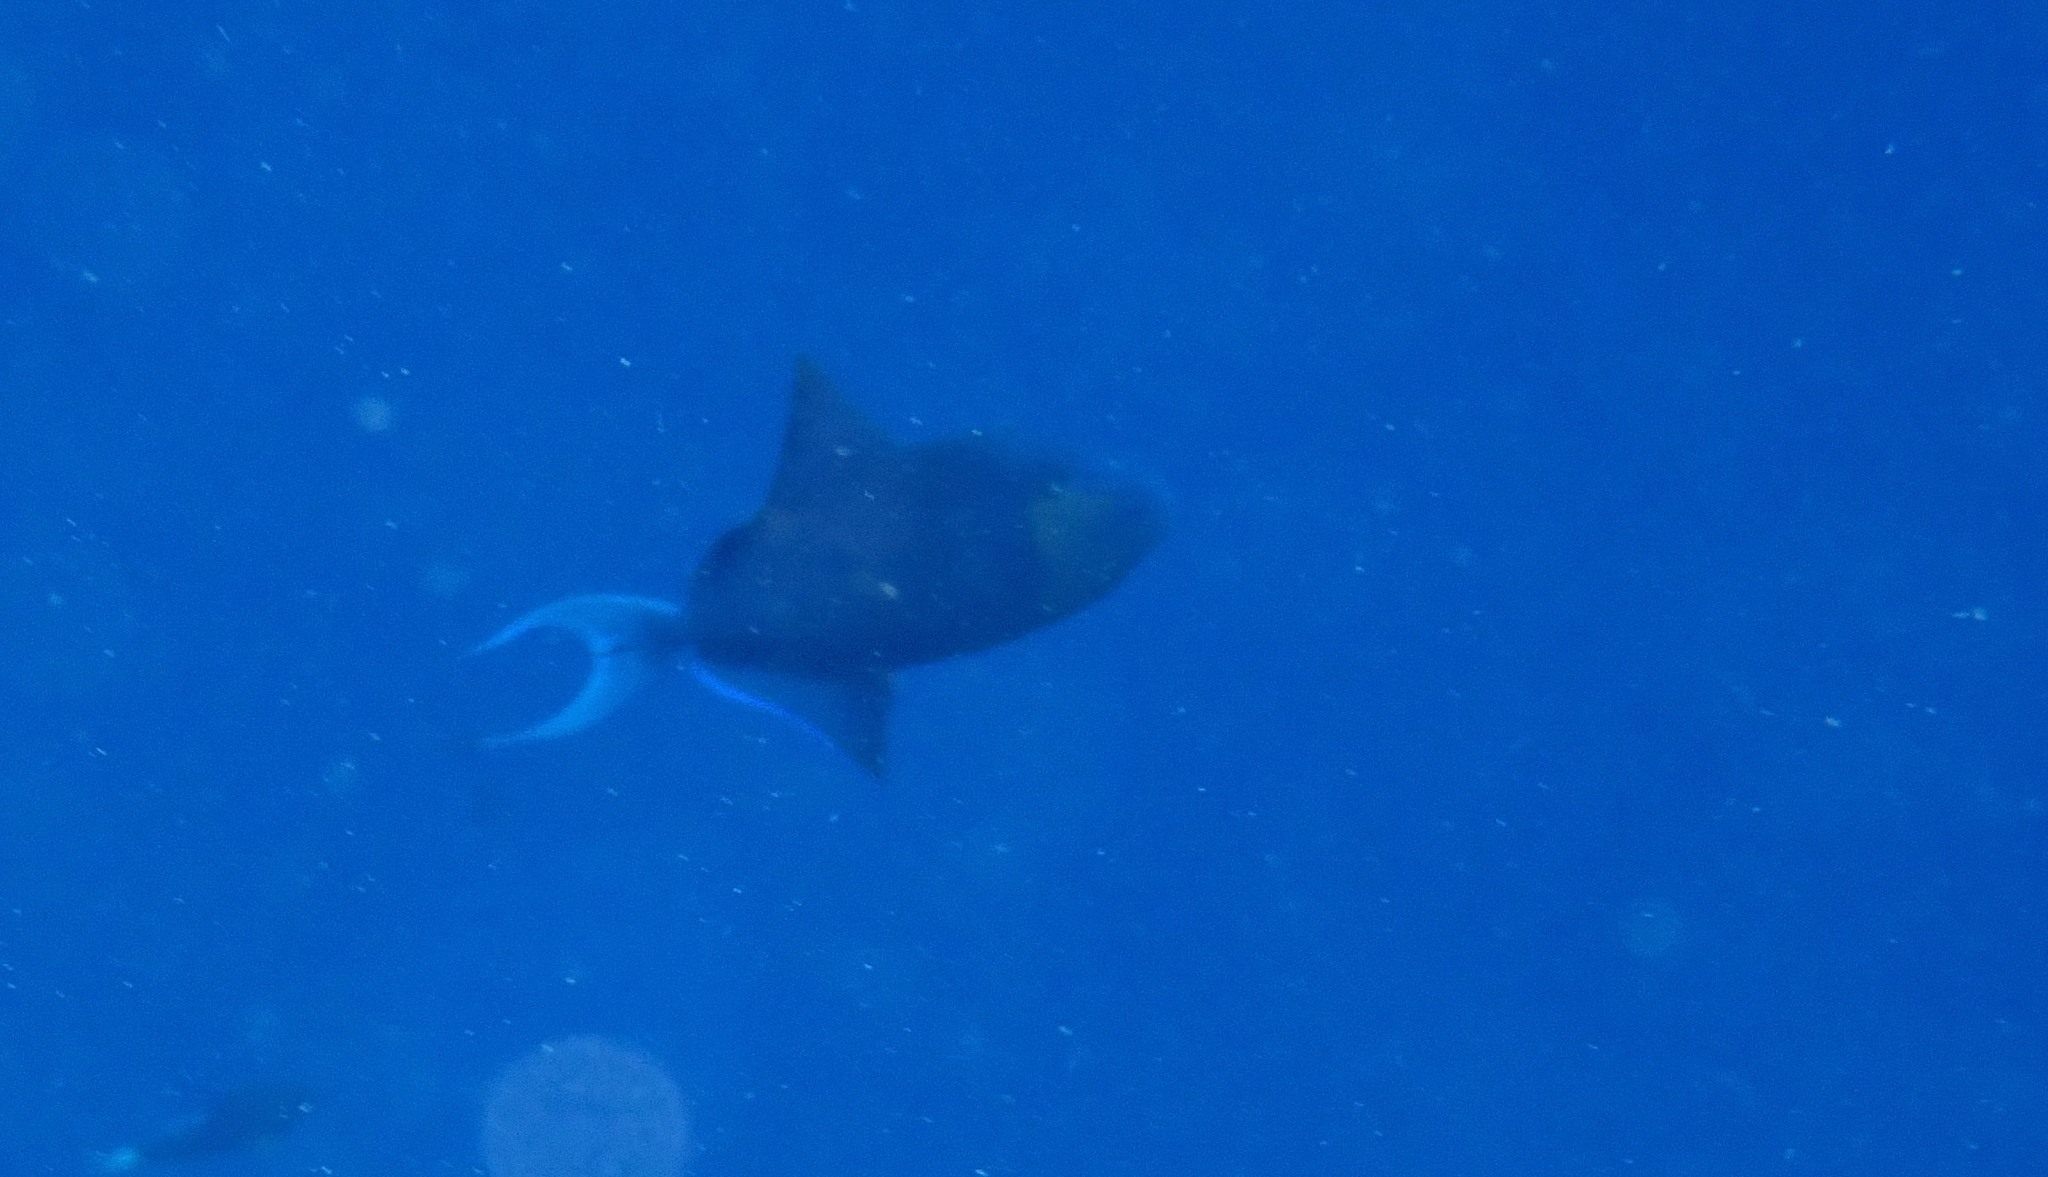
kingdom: Animalia
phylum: Chordata
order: Tetraodontiformes
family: Balistidae
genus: Odonus
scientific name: Odonus niger
